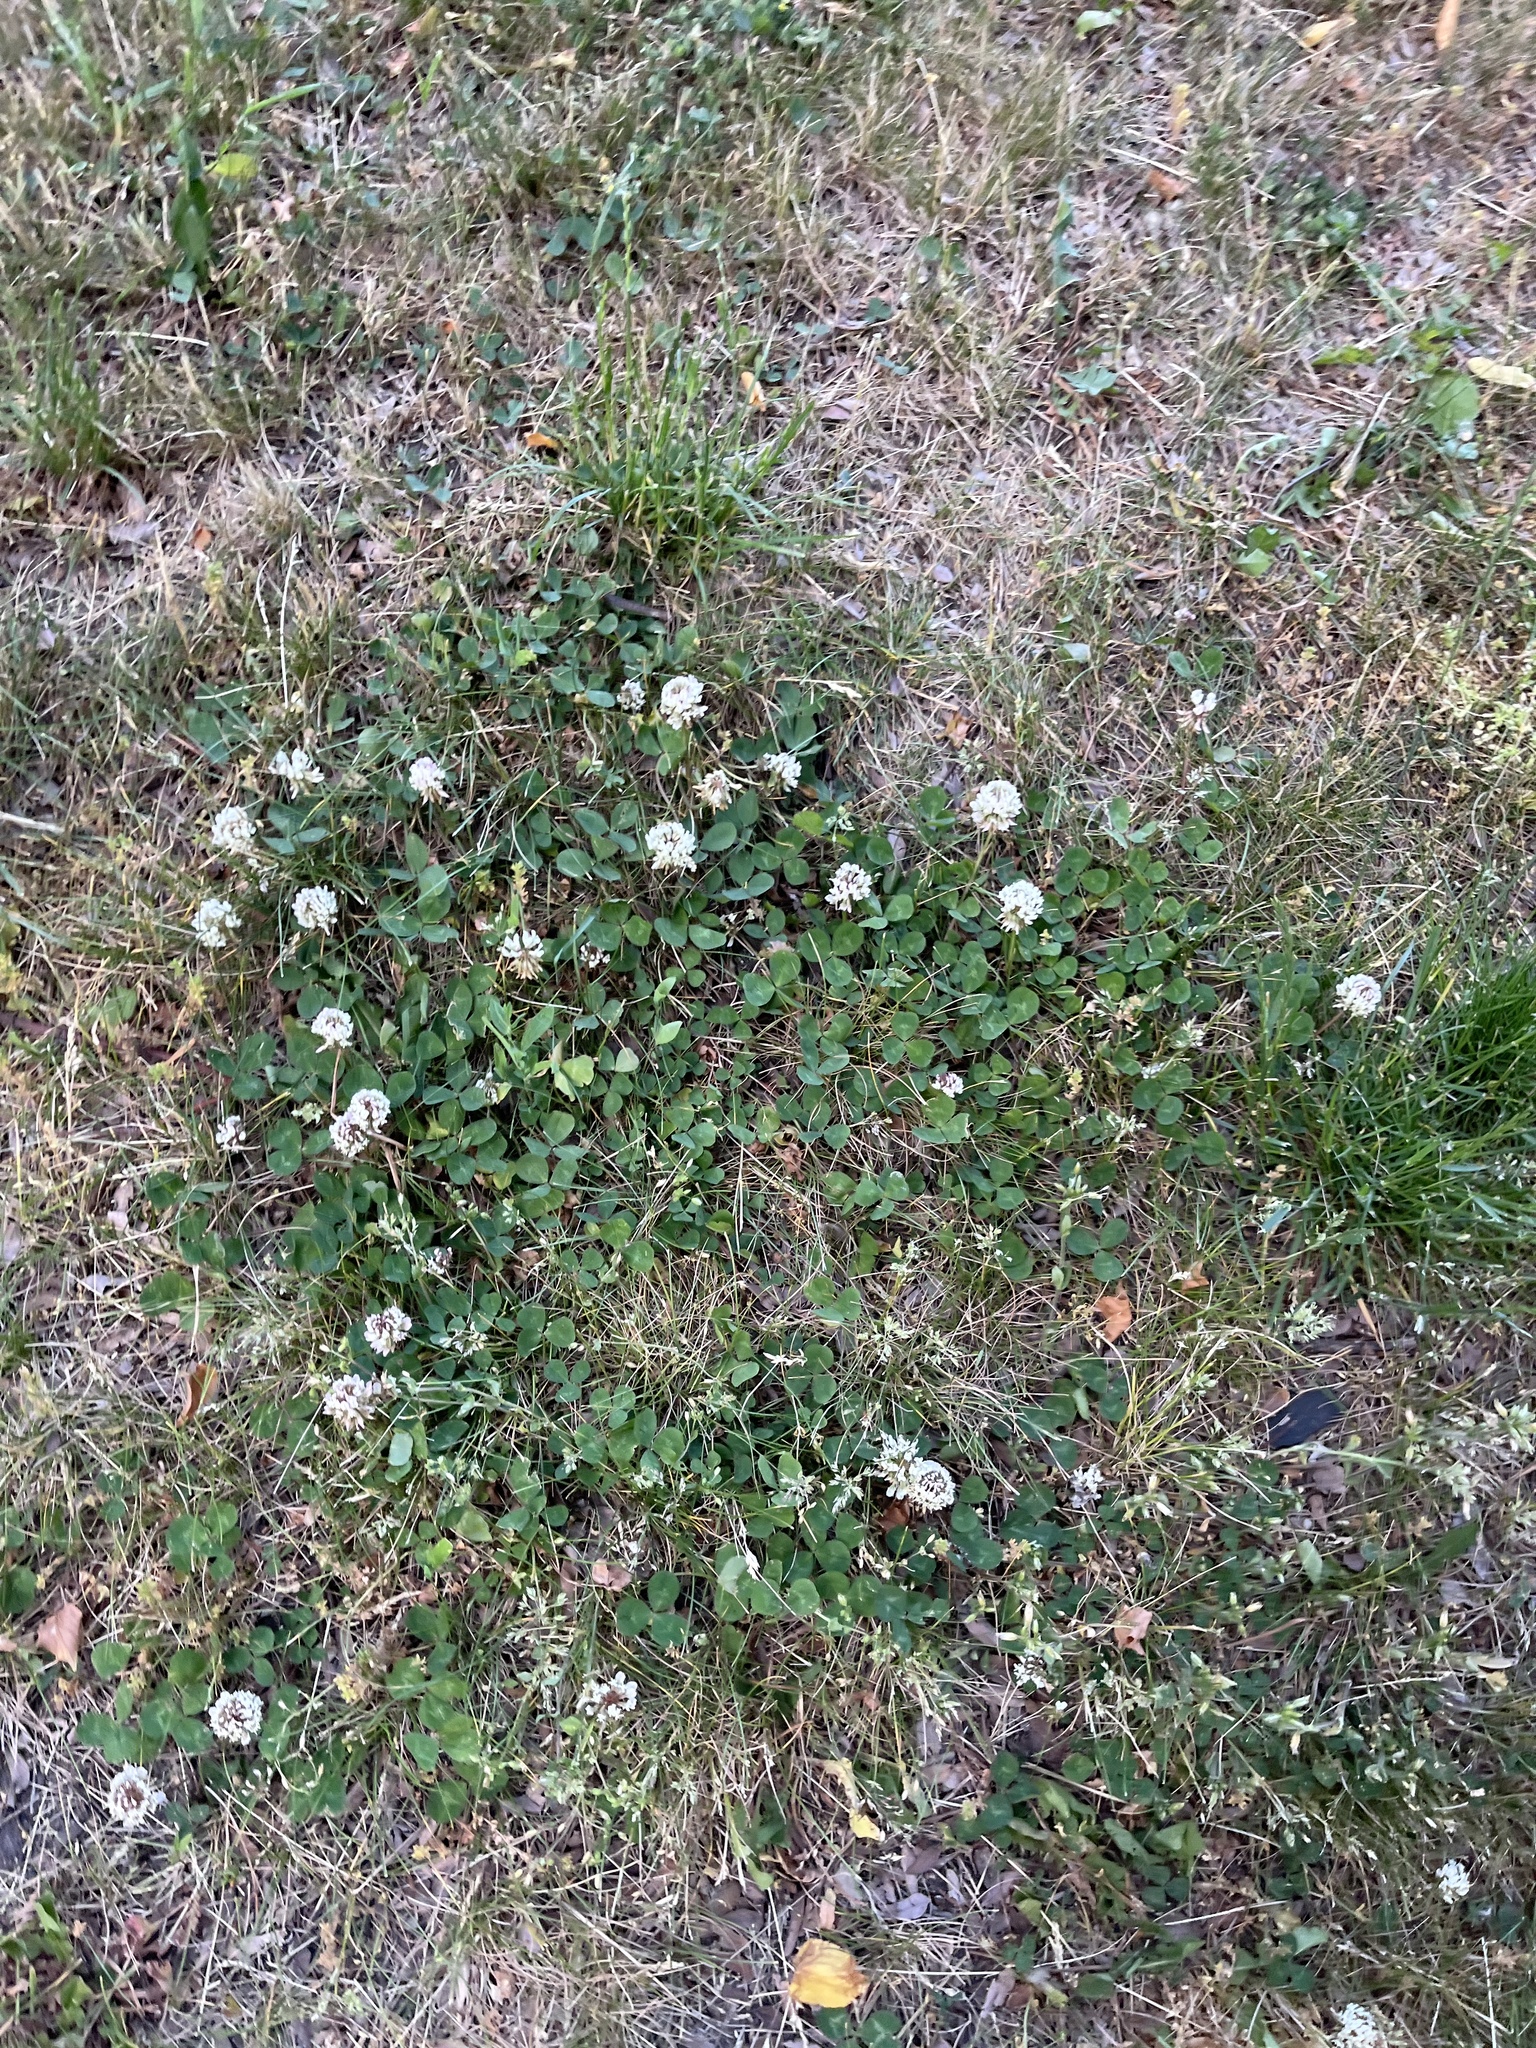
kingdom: Plantae
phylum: Tracheophyta
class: Magnoliopsida
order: Fabales
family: Fabaceae
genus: Trifolium
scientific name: Trifolium repens
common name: White clover
